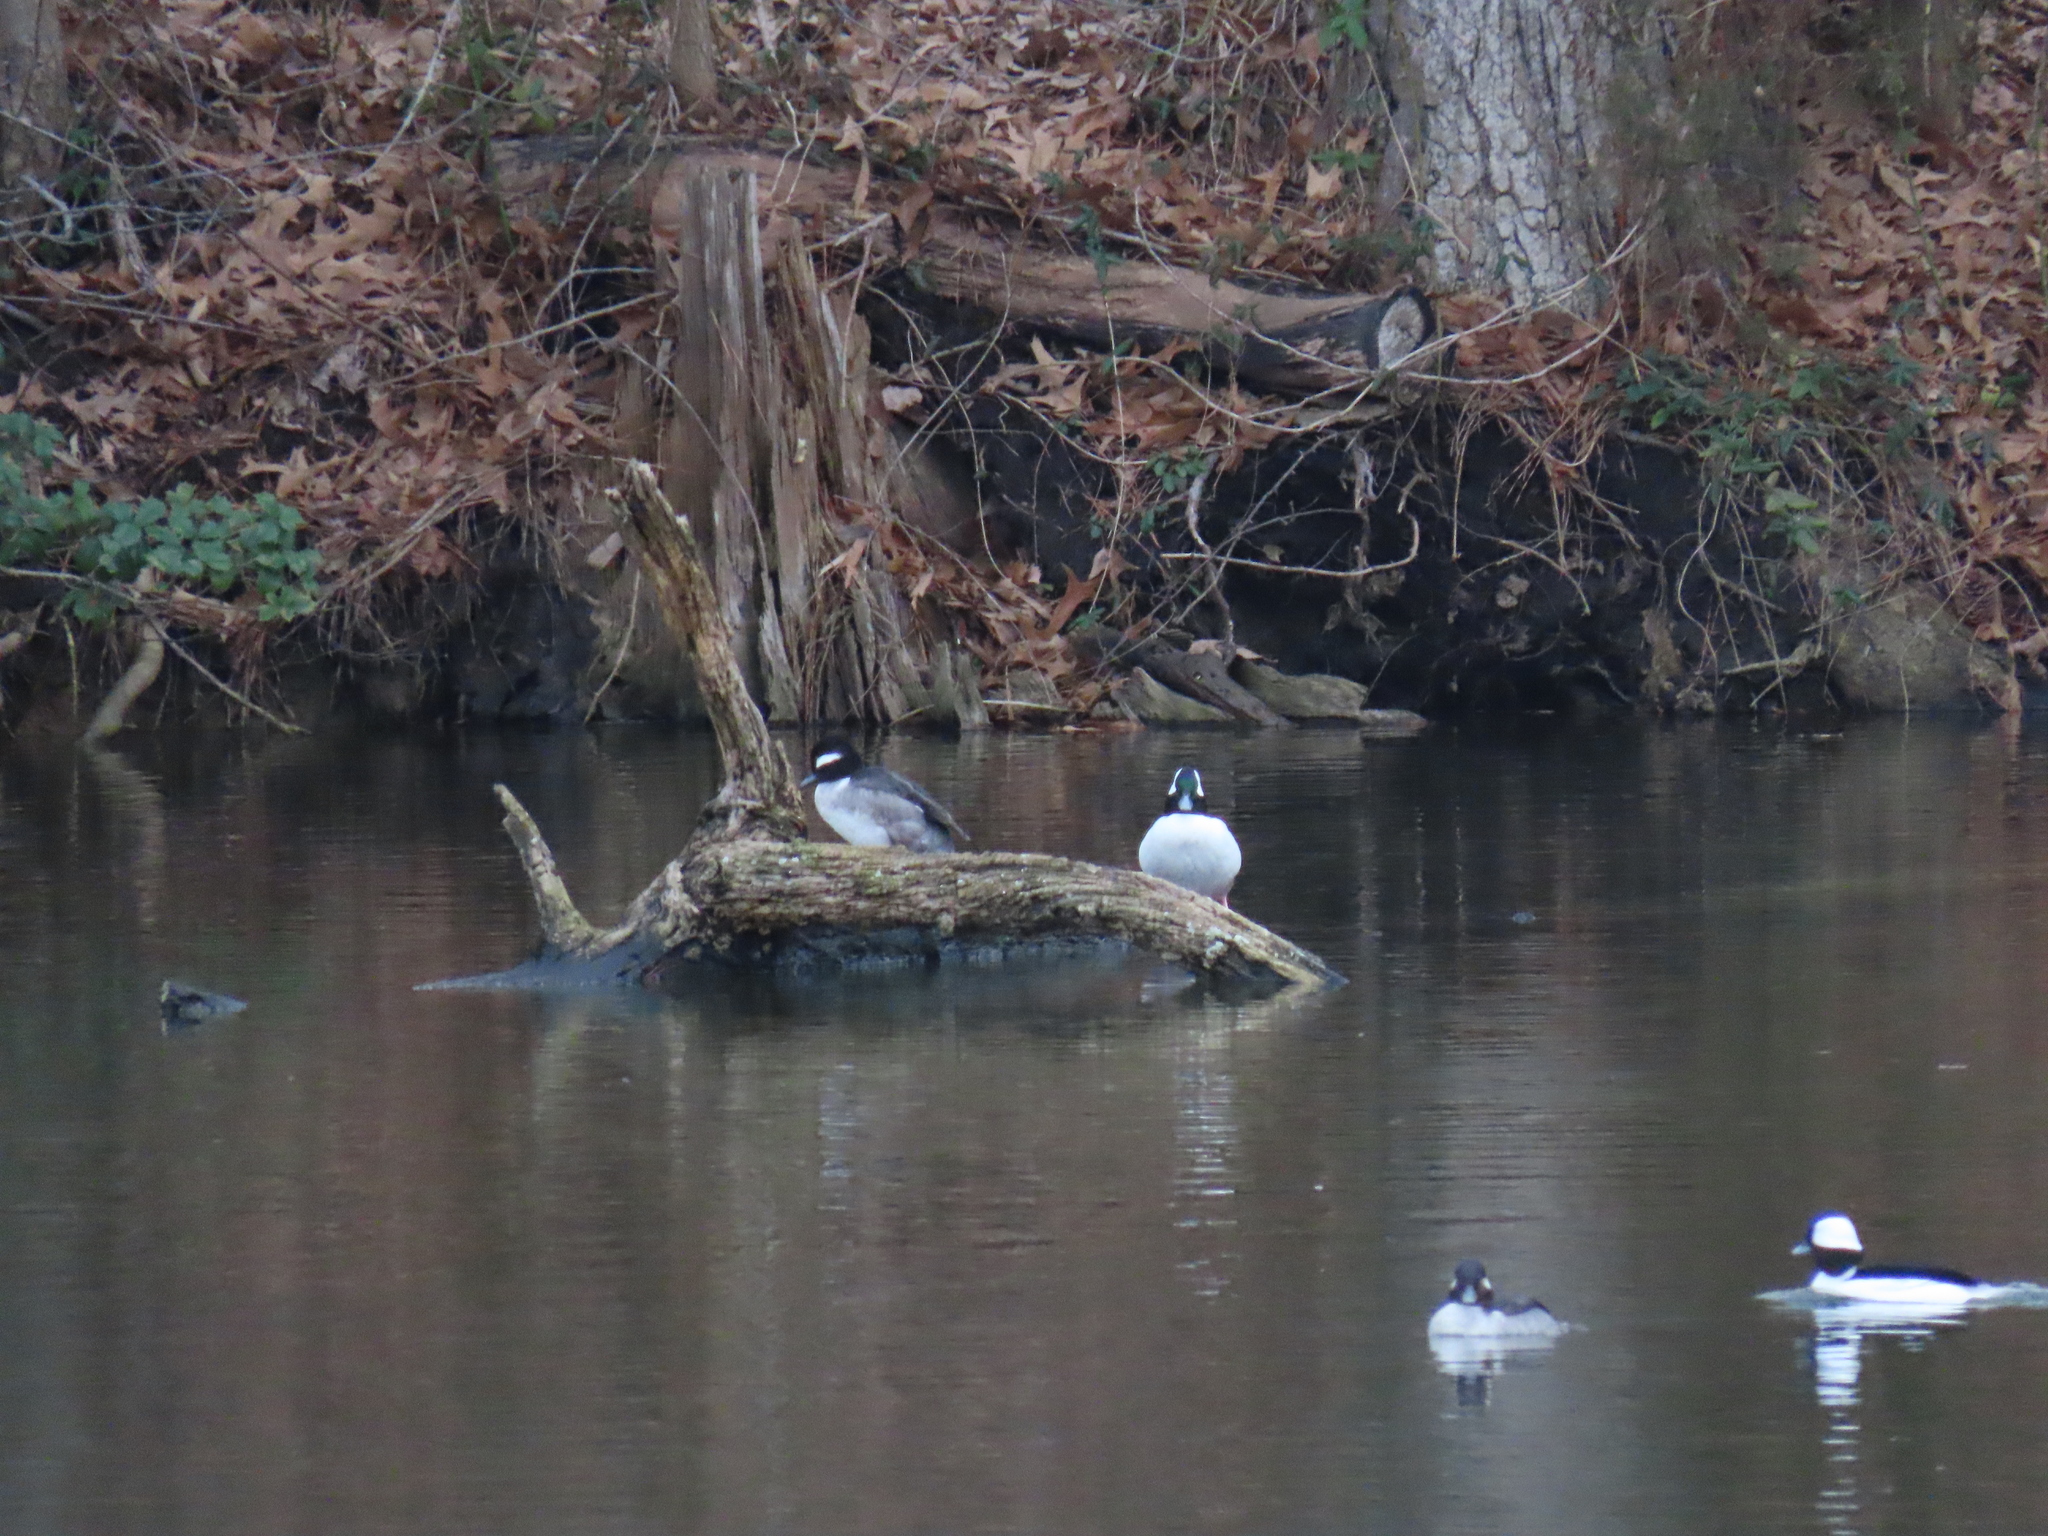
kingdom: Animalia
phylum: Chordata
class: Aves
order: Anseriformes
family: Anatidae
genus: Bucephala
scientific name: Bucephala albeola
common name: Bufflehead
